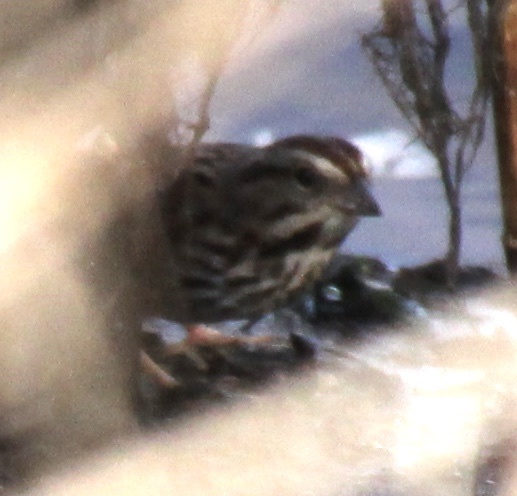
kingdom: Animalia
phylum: Chordata
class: Aves
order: Passeriformes
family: Passerellidae
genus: Melospiza
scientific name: Melospiza melodia
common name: Song sparrow
